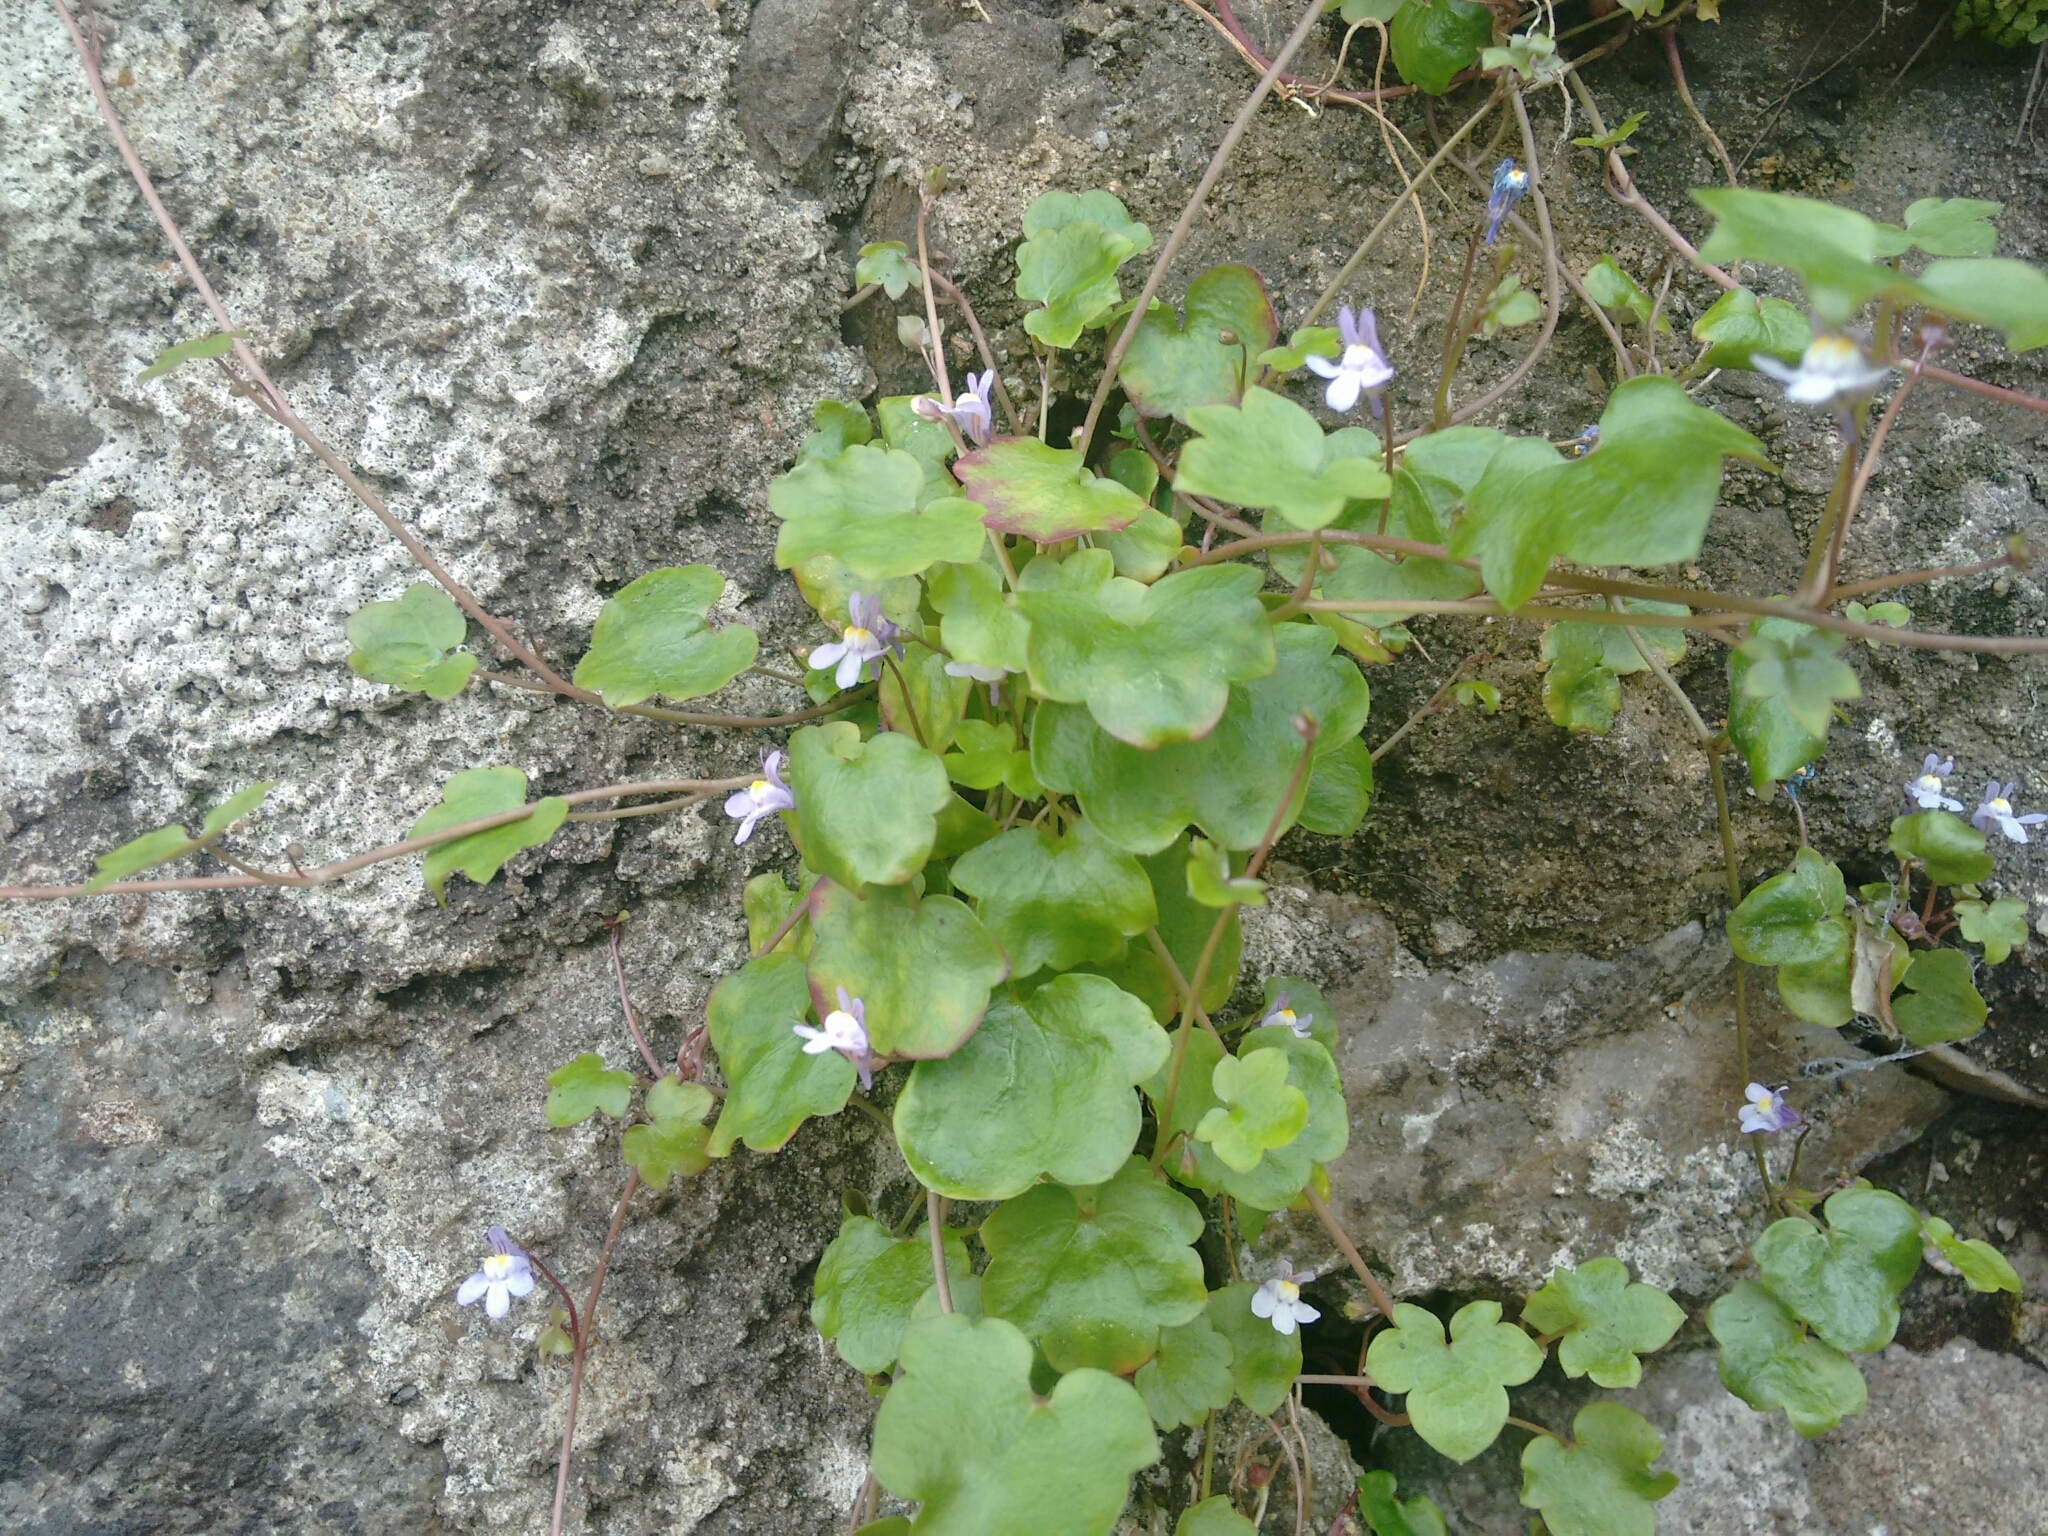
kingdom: Plantae
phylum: Tracheophyta
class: Magnoliopsida
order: Lamiales
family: Plantaginaceae
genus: Cymbalaria
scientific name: Cymbalaria muralis
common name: Ivy-leaved toadflax
